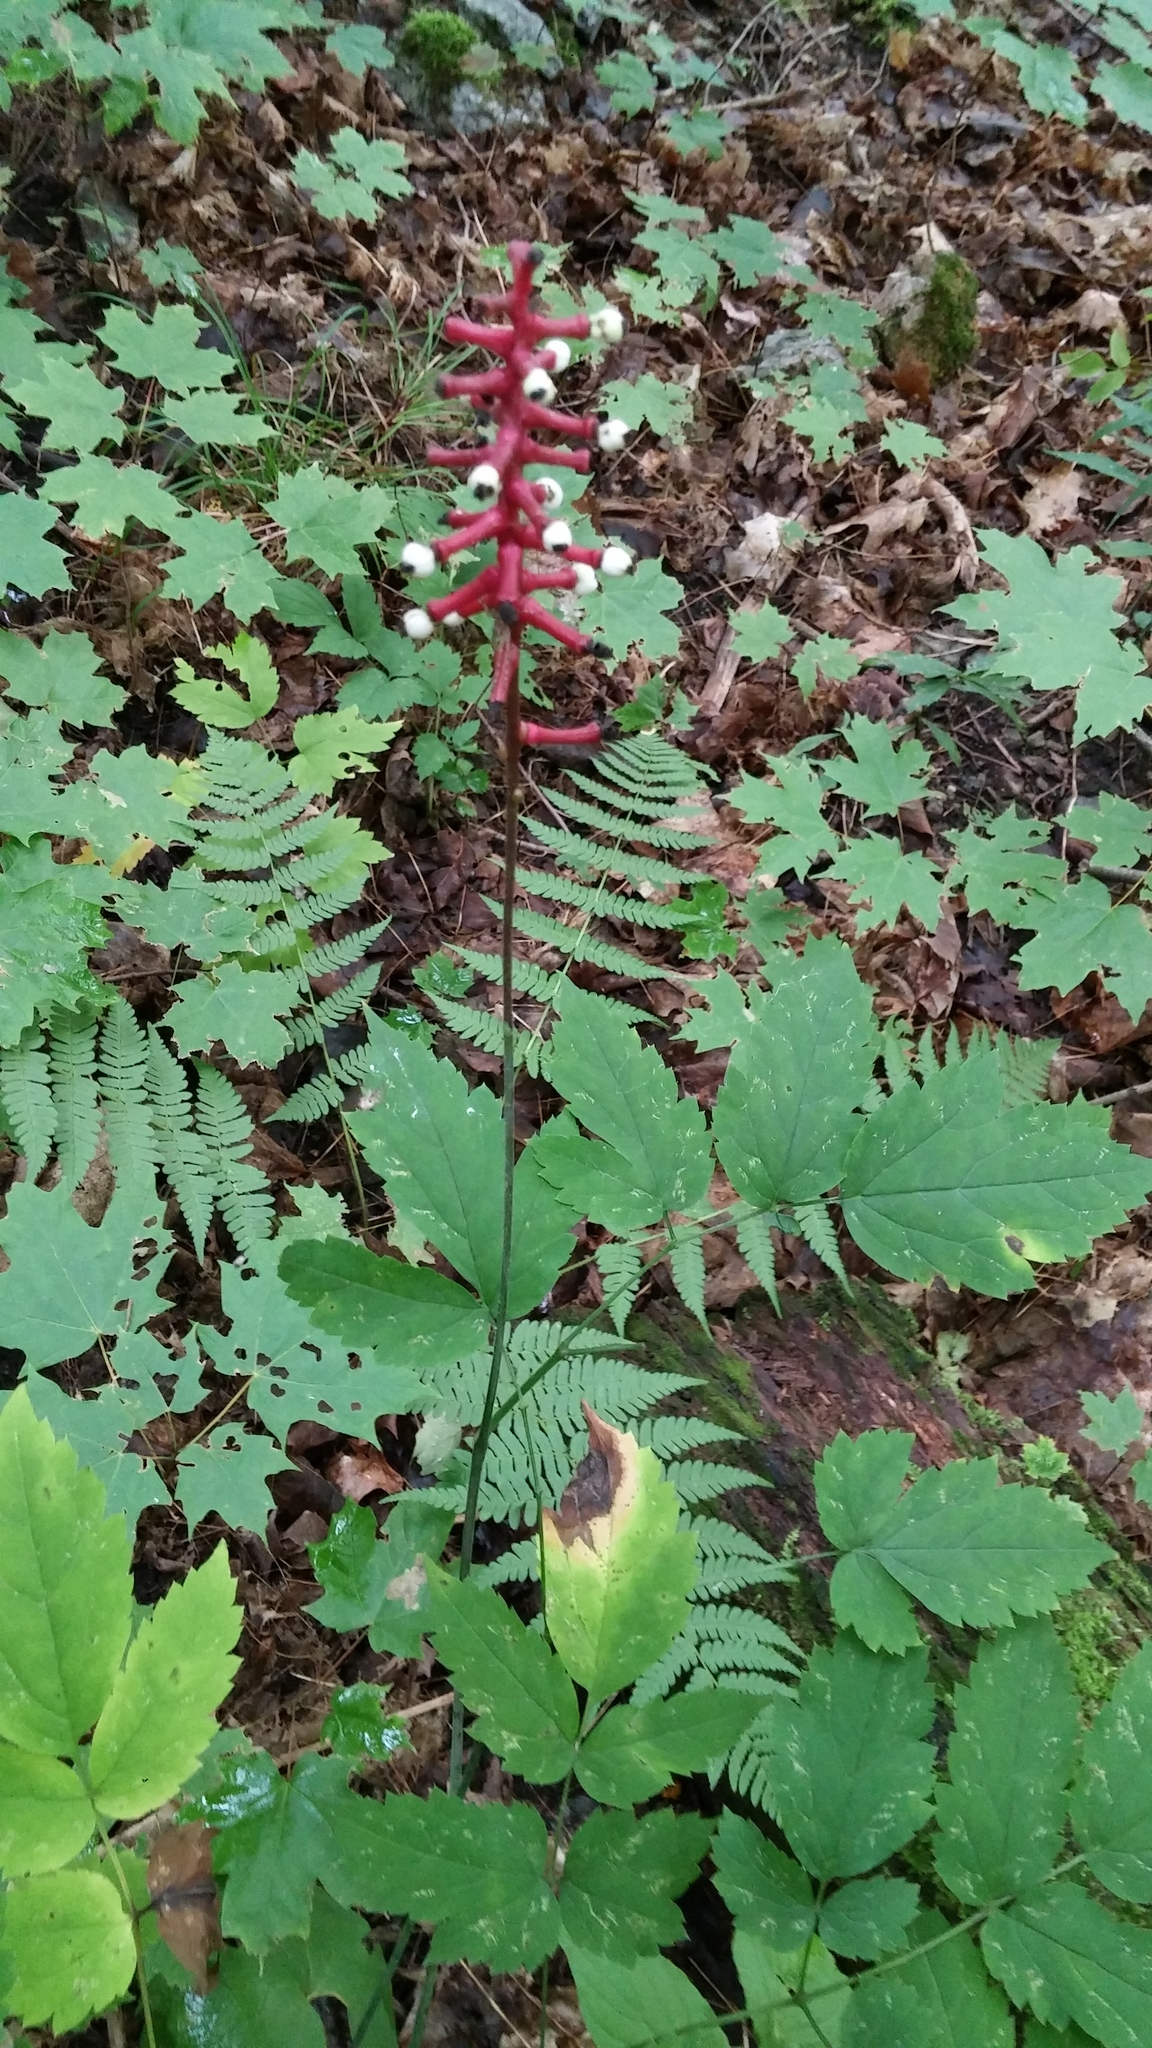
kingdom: Plantae
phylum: Tracheophyta
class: Magnoliopsida
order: Ranunculales
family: Ranunculaceae
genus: Actaea
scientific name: Actaea pachypoda
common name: Doll's-eyes
